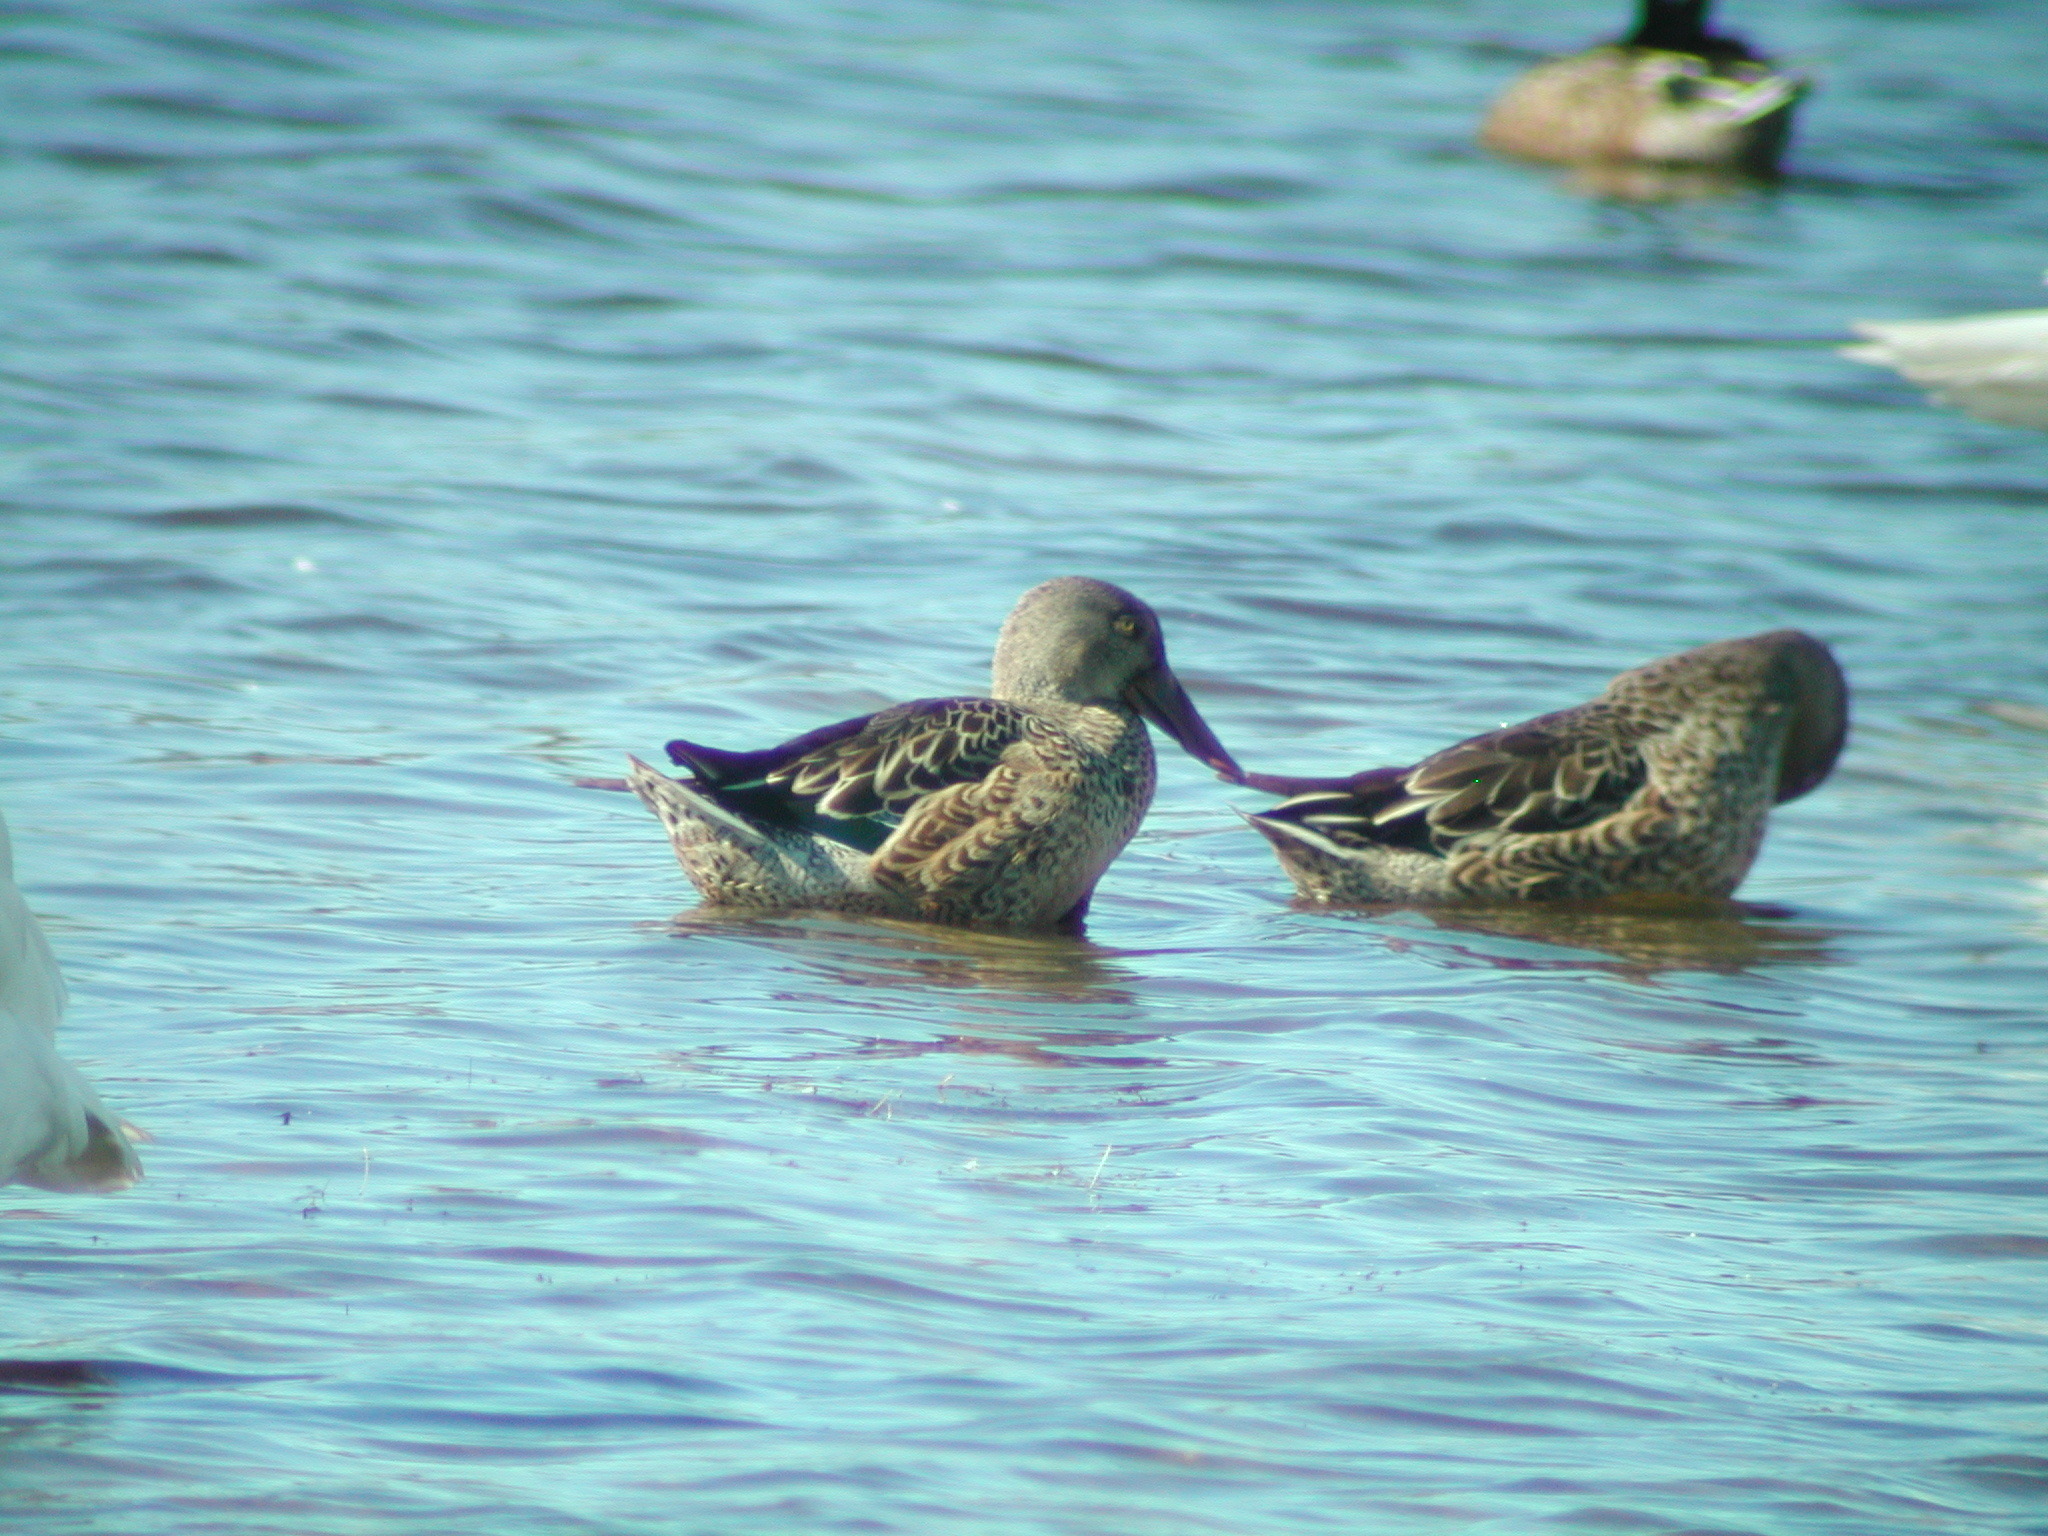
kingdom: Animalia
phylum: Chordata
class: Aves
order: Anseriformes
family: Anatidae
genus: Spatula
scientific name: Spatula clypeata
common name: Northern shoveler
